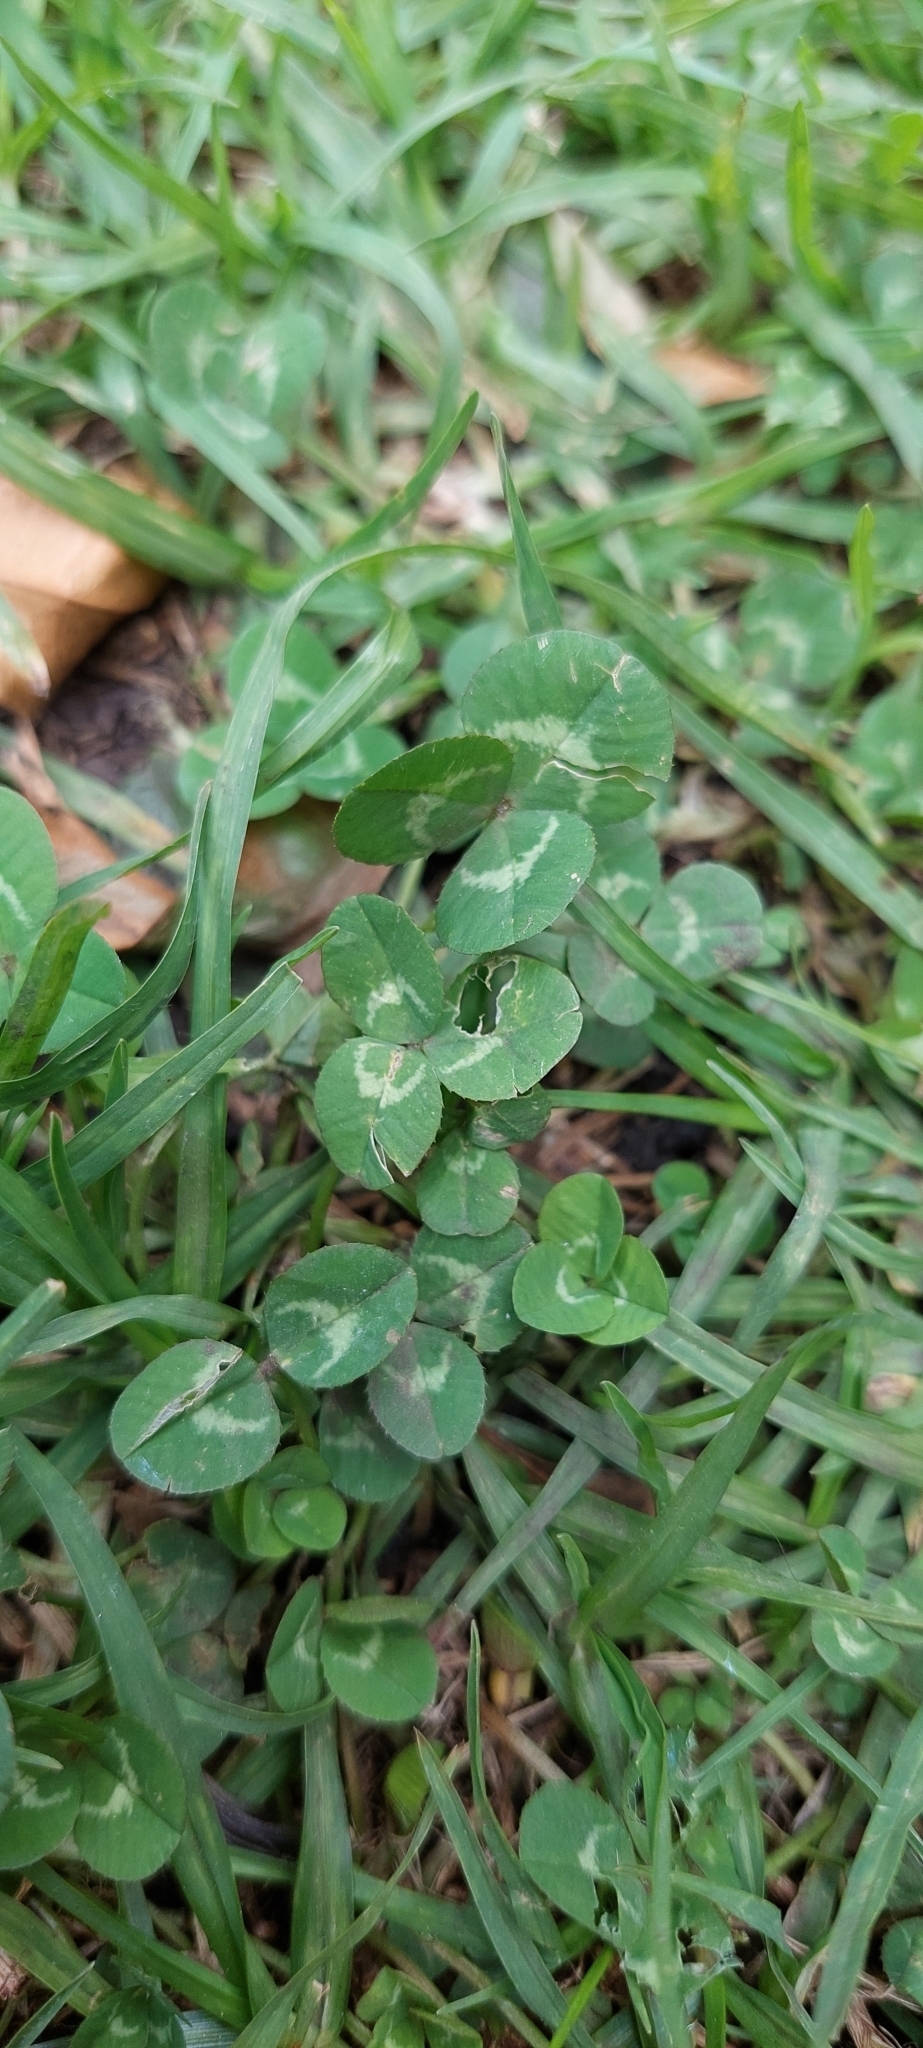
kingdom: Plantae
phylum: Tracheophyta
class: Magnoliopsida
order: Fabales
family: Fabaceae
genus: Trifolium
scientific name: Trifolium repens
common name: White clover
